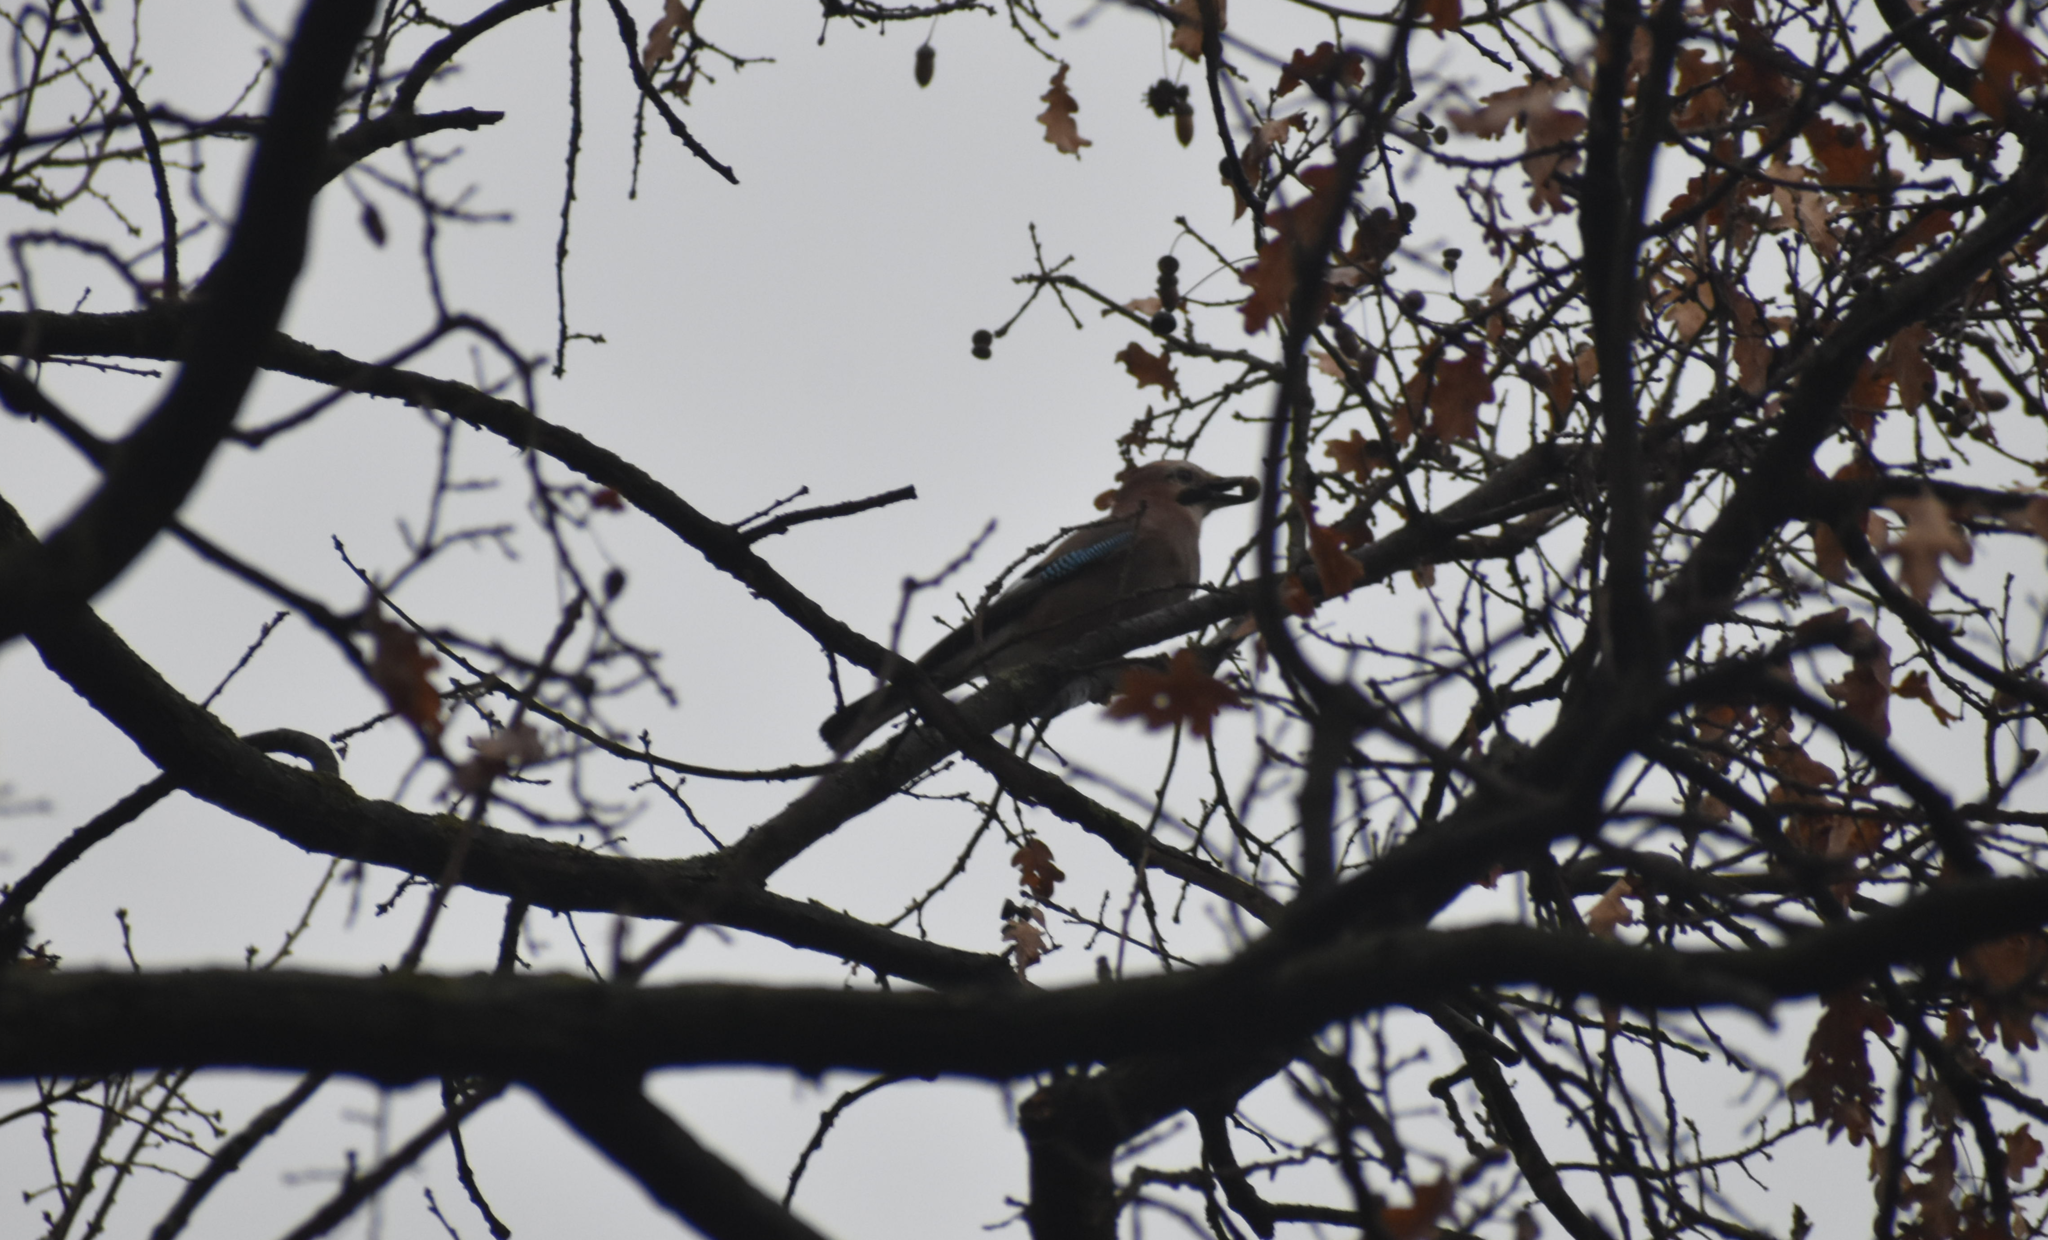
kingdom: Animalia
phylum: Chordata
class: Aves
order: Passeriformes
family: Corvidae
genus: Garrulus
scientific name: Garrulus glandarius
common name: Eurasian jay
